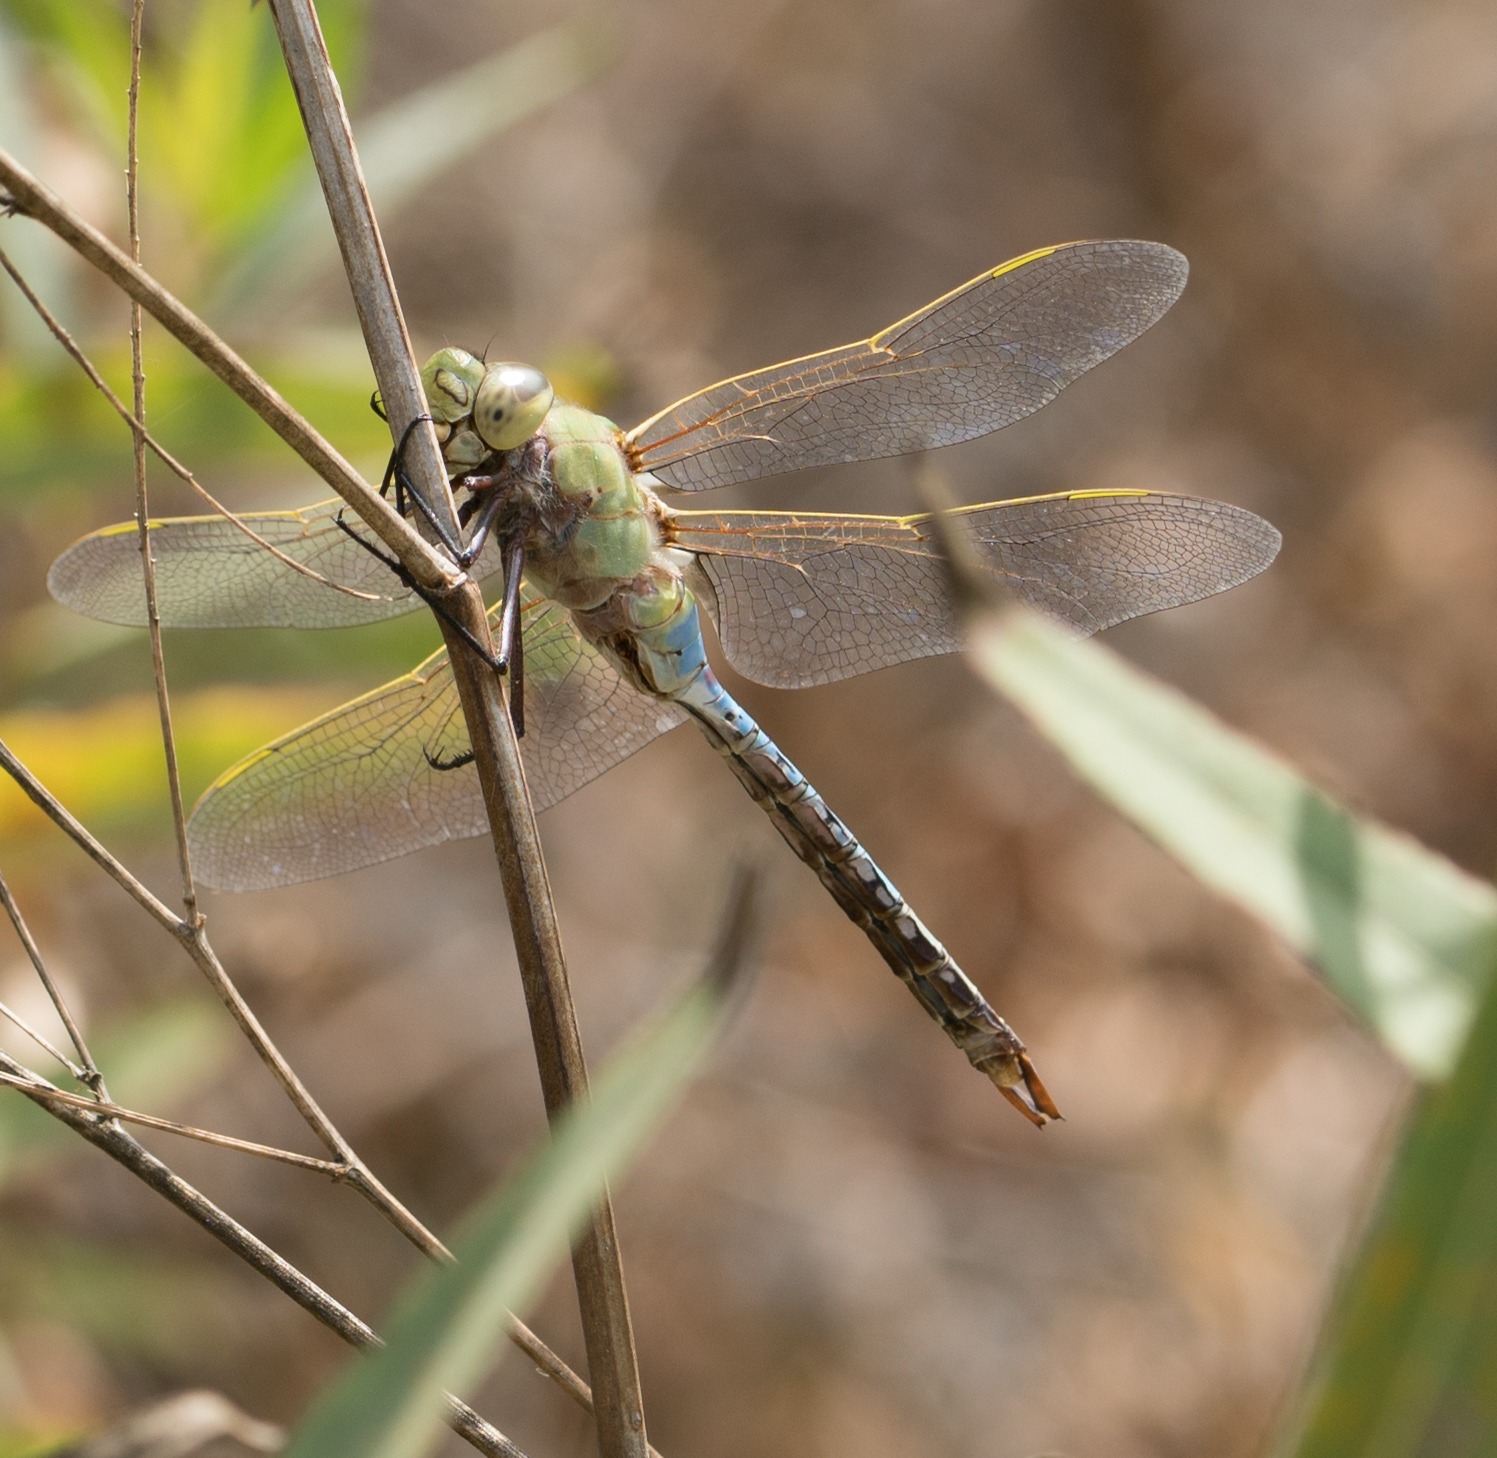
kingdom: Animalia
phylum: Arthropoda
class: Insecta
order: Odonata
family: Aeshnidae
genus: Anax
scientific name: Anax junius
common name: Common green darner
